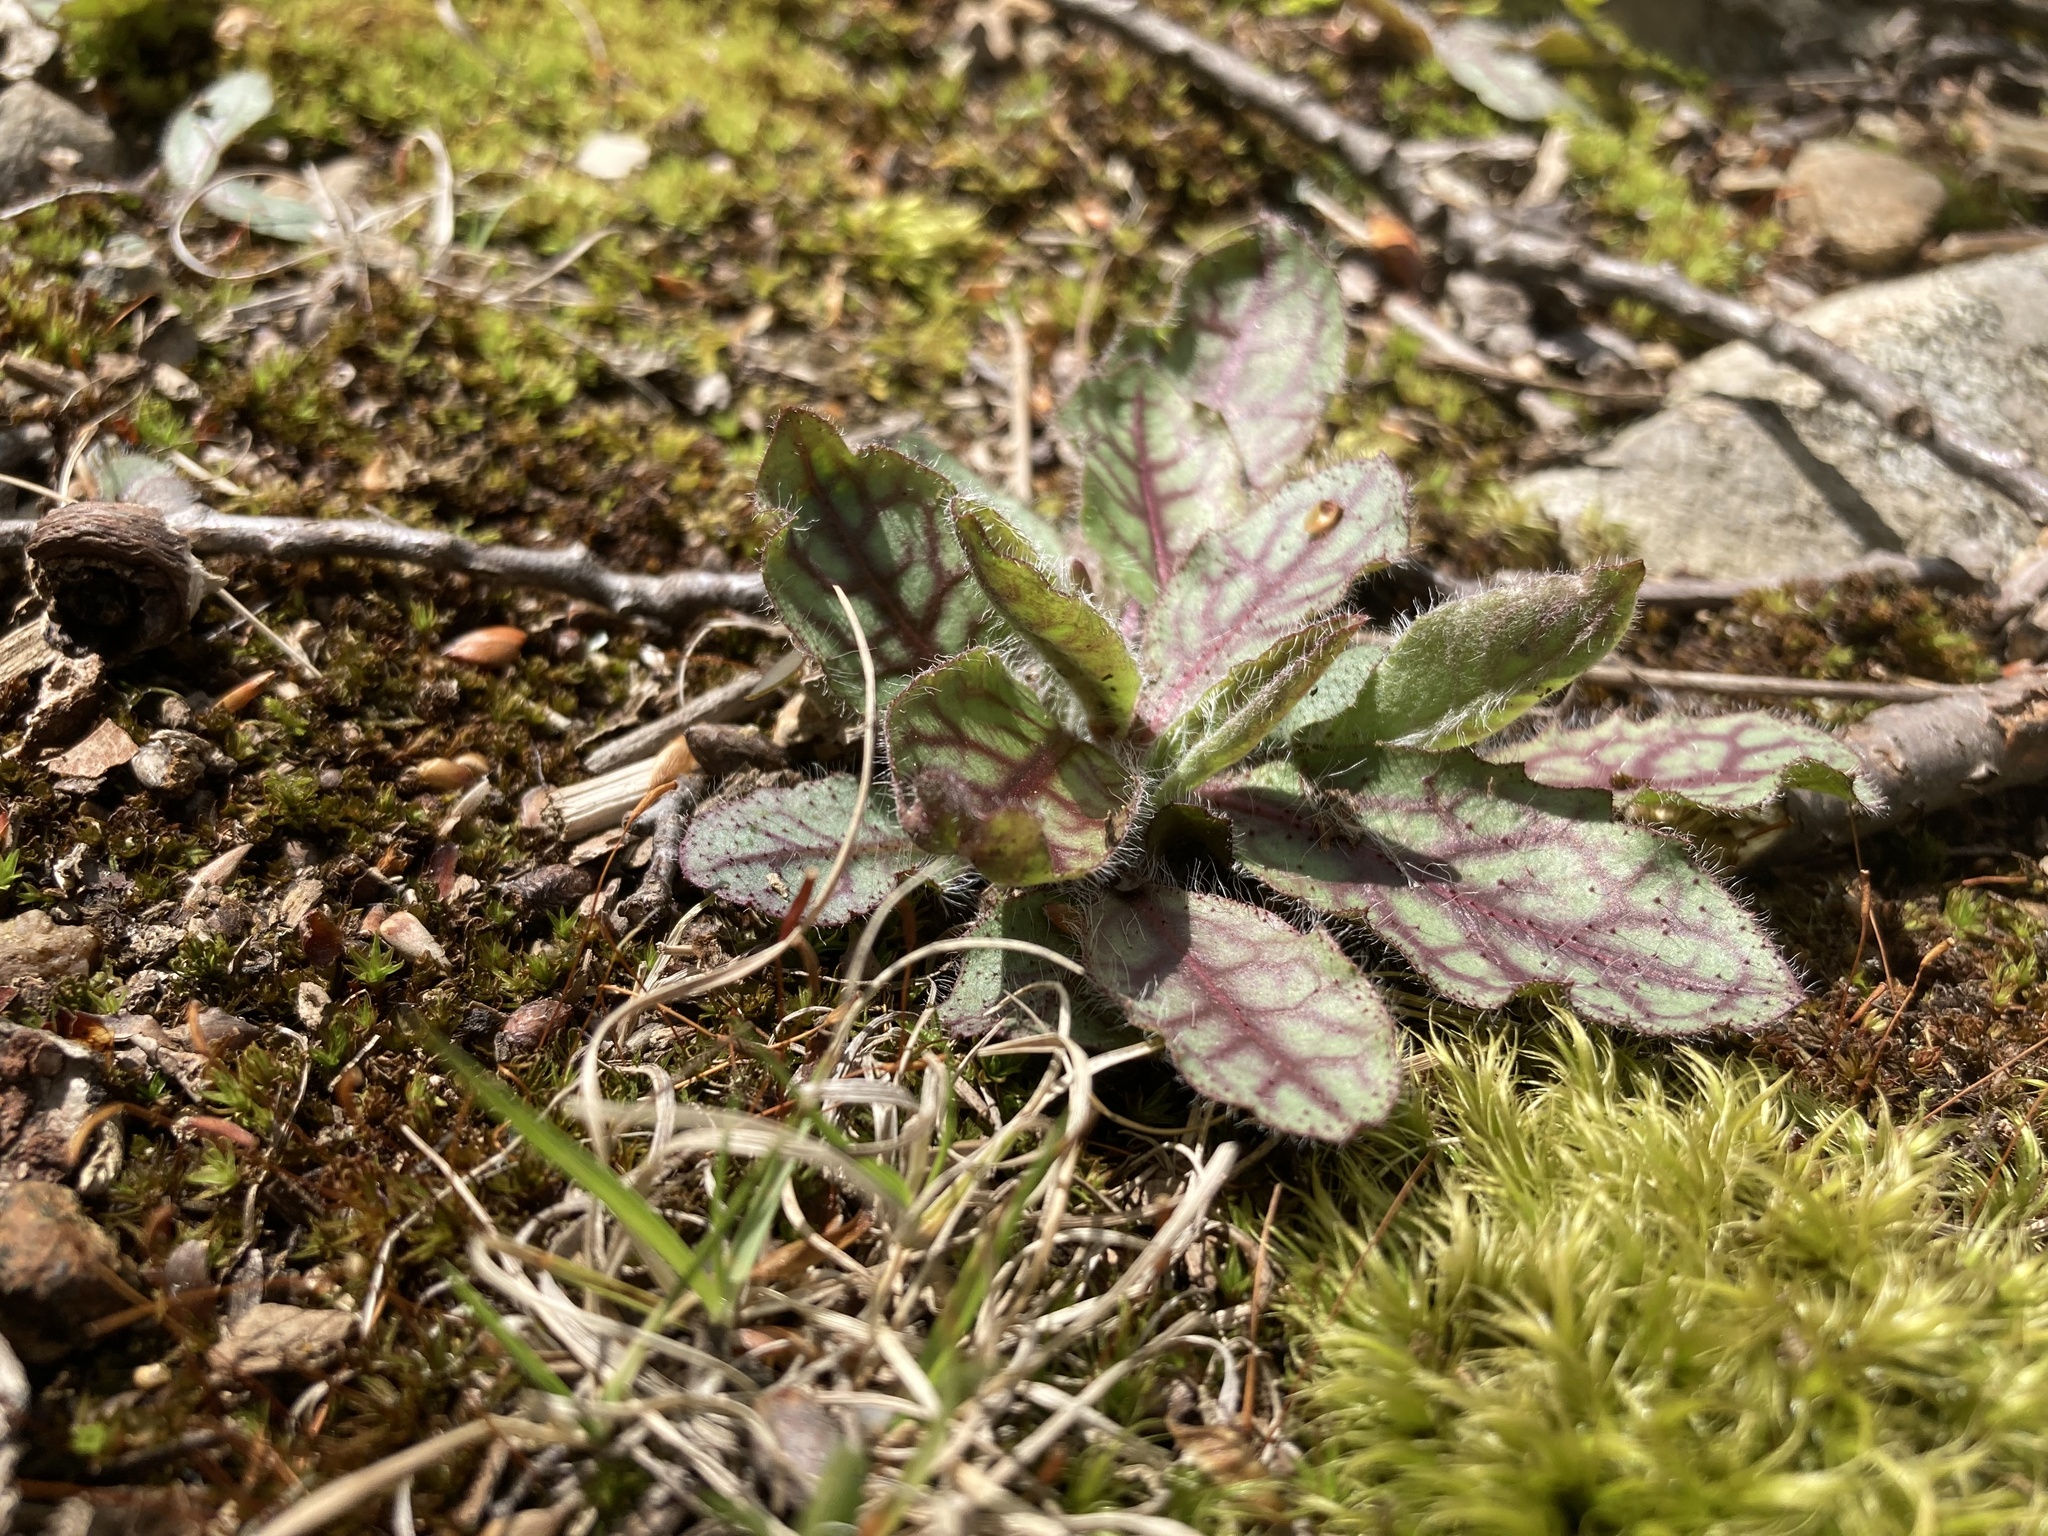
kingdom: Plantae
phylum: Tracheophyta
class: Magnoliopsida
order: Asterales
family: Asteraceae
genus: Hieracium
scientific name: Hieracium venosum
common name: Rattlesnake hawkweed
